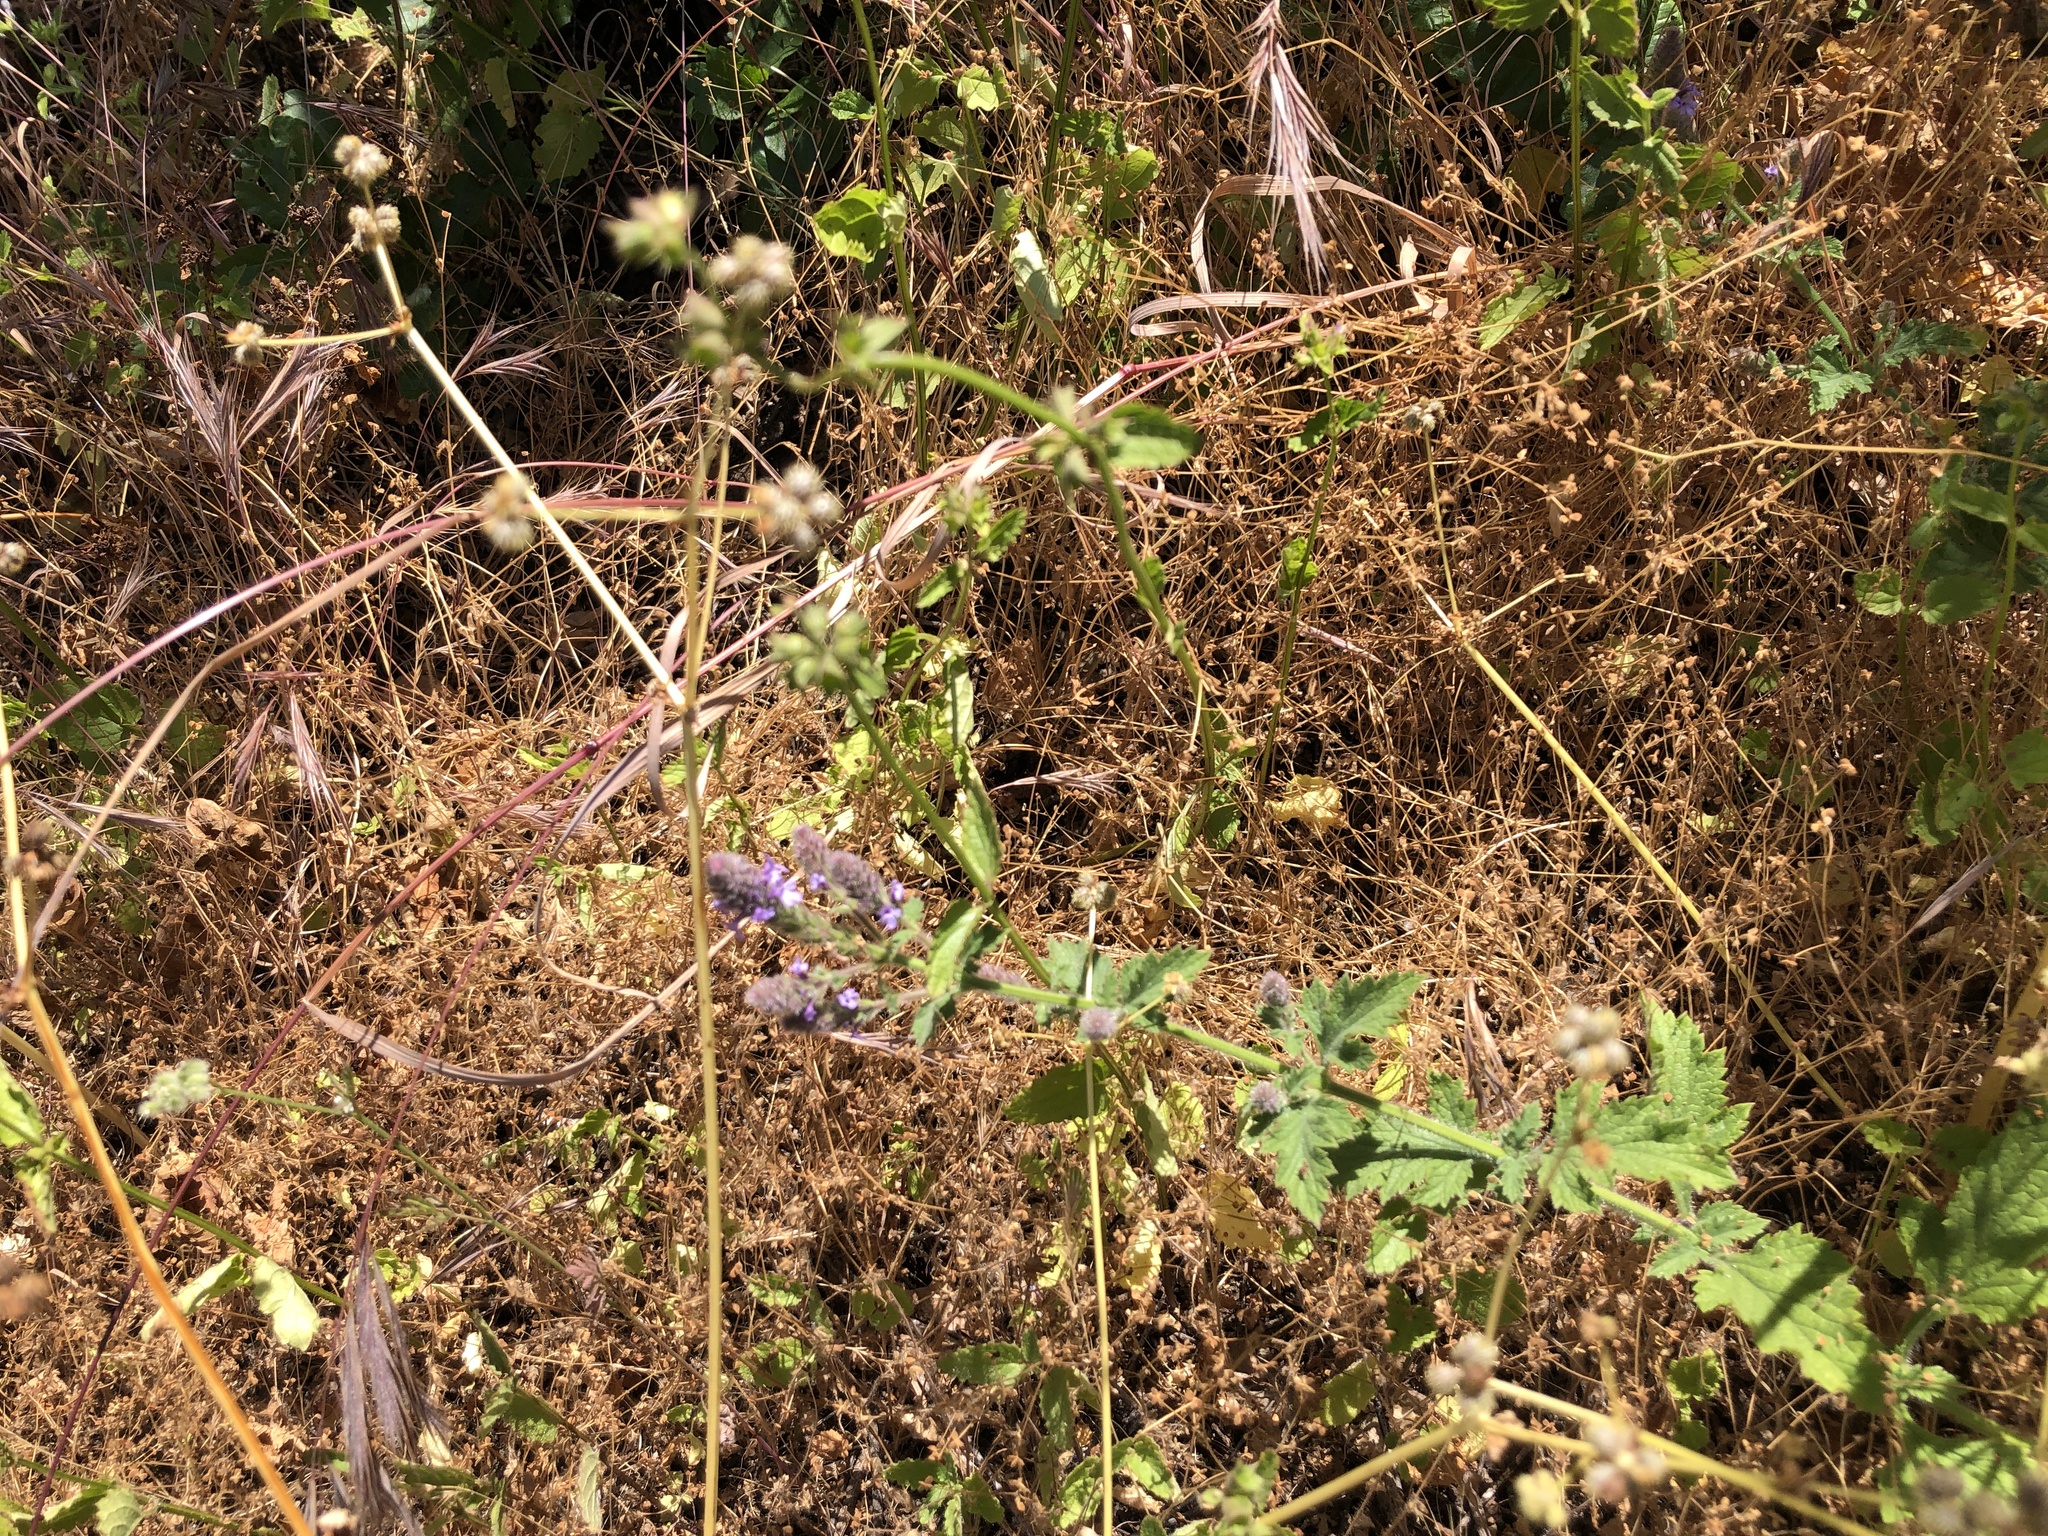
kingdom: Plantae
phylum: Tracheophyta
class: Magnoliopsida
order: Lamiales
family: Verbenaceae
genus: Verbena
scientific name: Verbena lasiostachys
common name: Vervain
